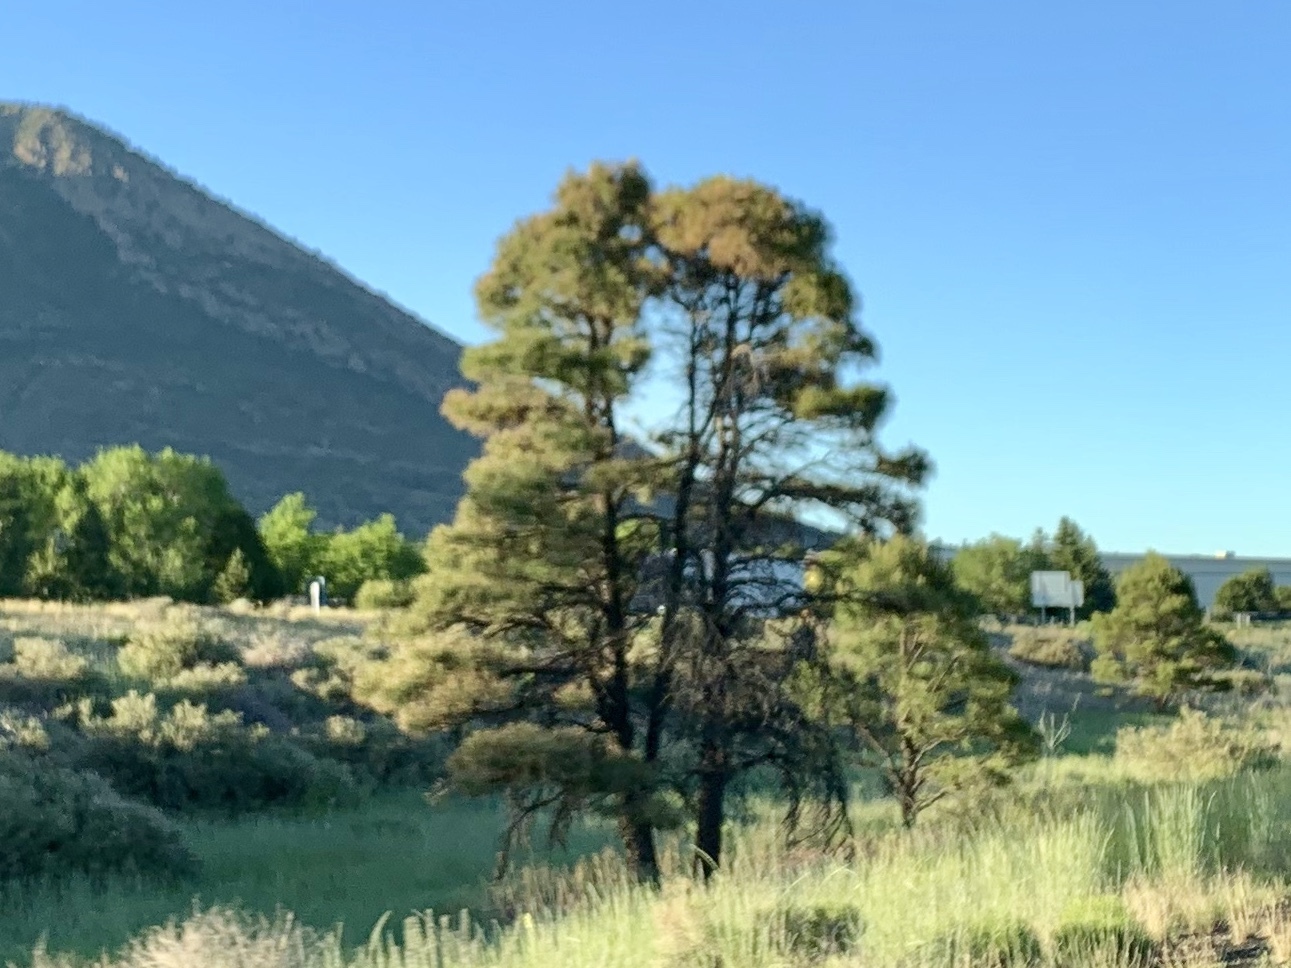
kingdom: Plantae
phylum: Tracheophyta
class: Pinopsida
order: Pinales
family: Pinaceae
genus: Pinus
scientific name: Pinus ponderosa
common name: Western yellow-pine
